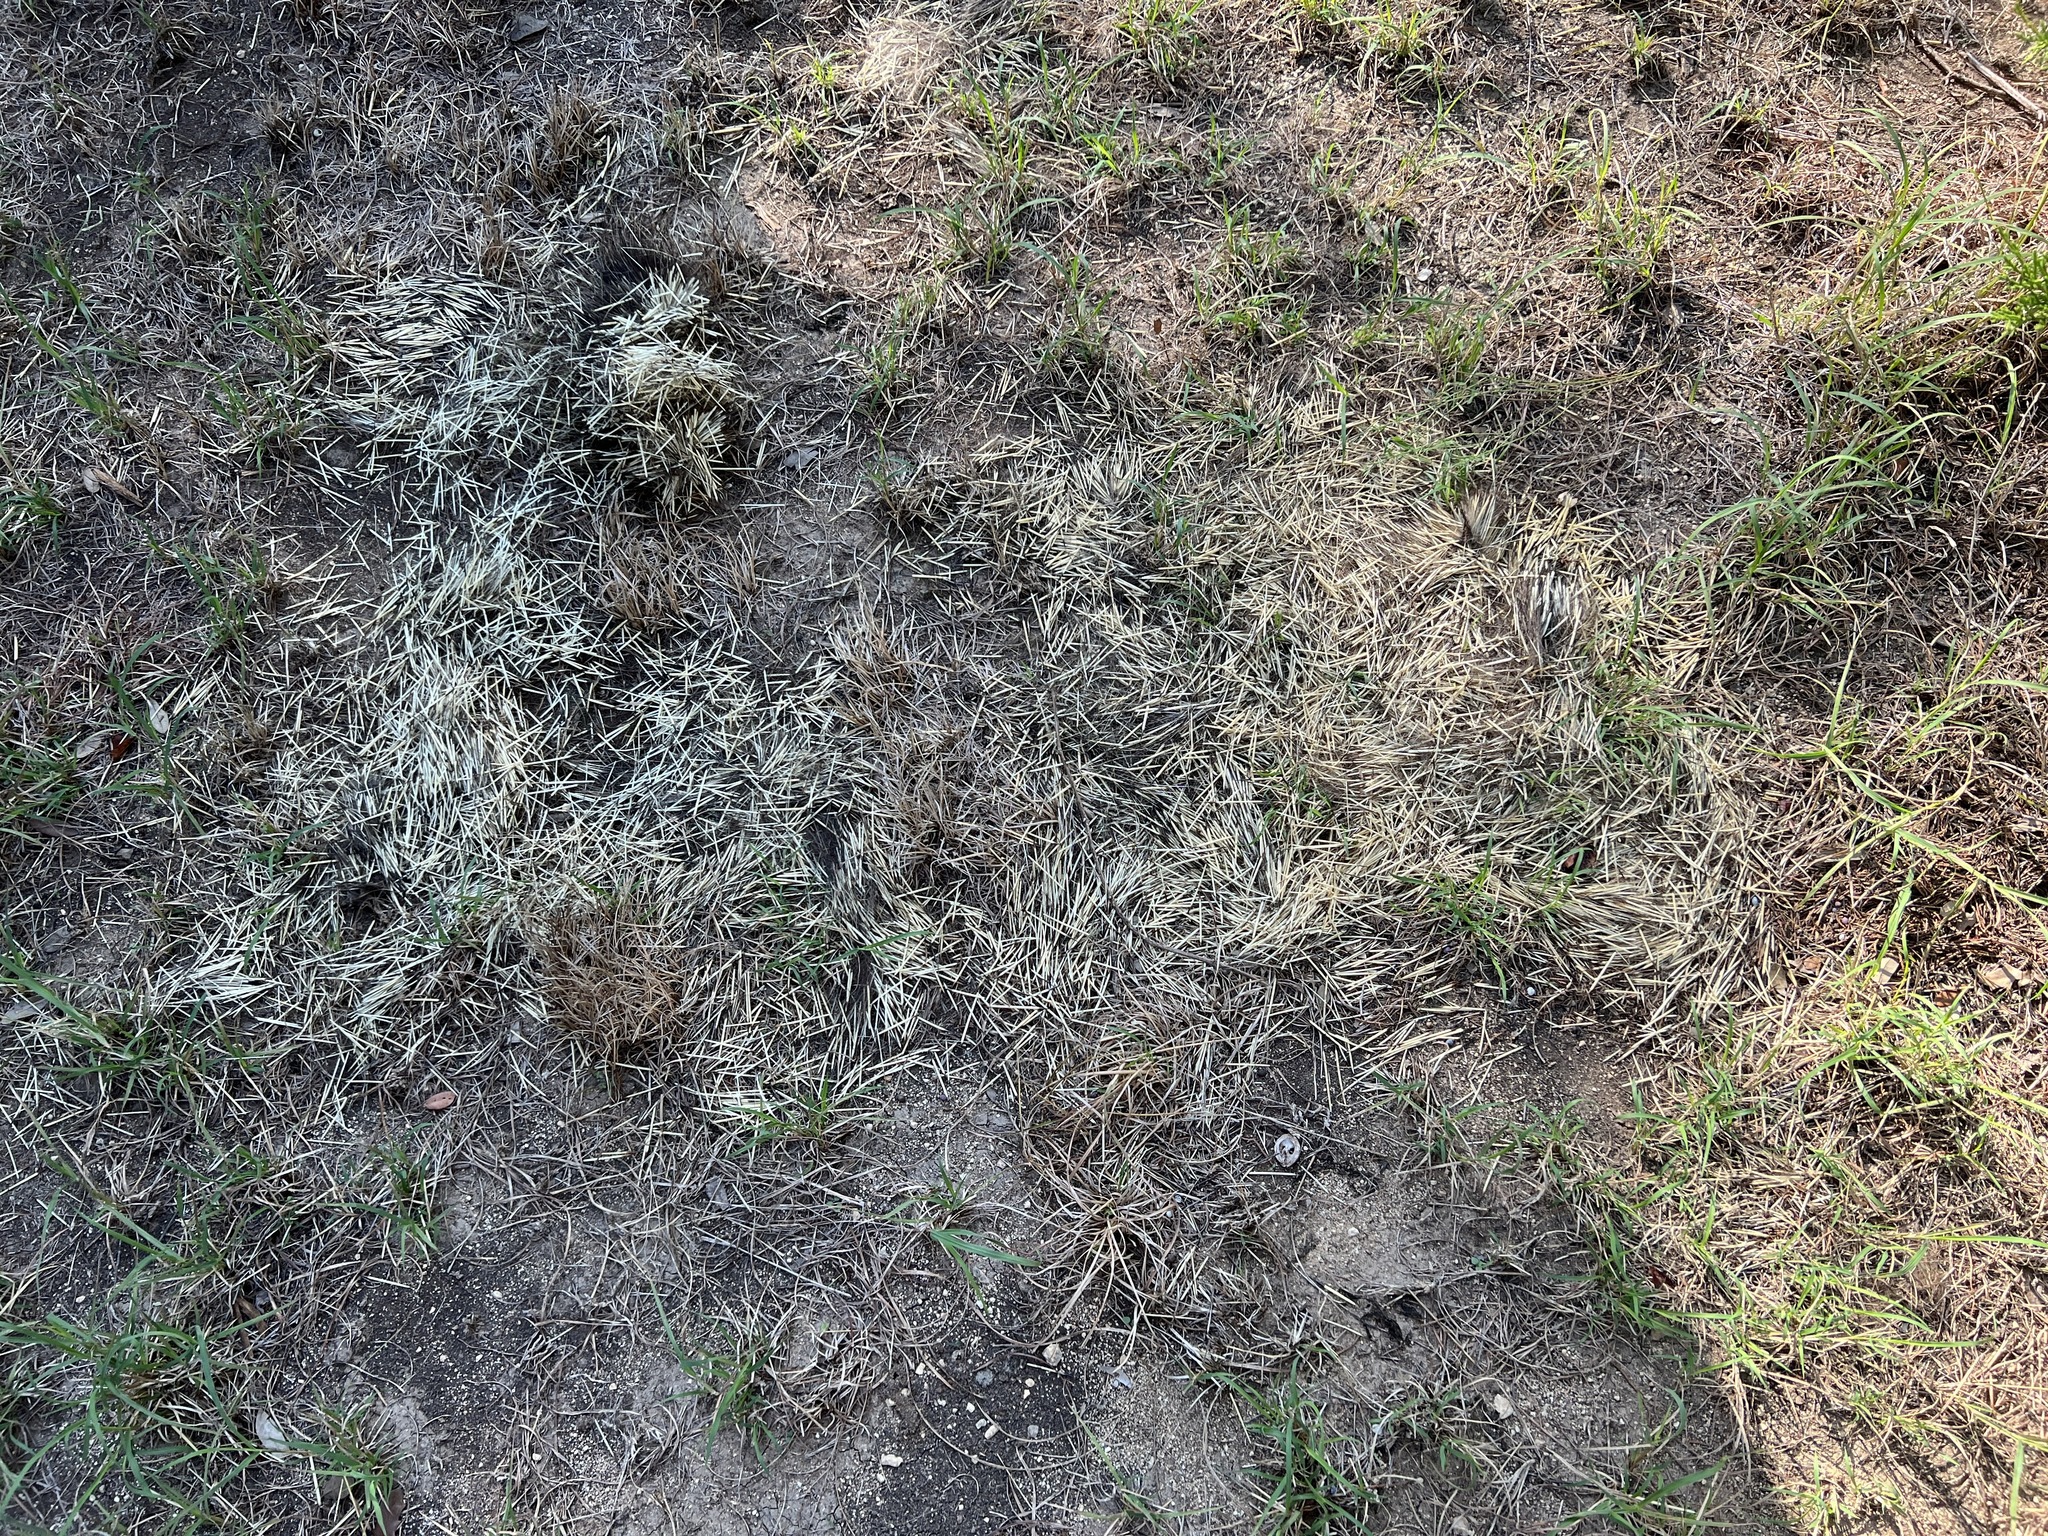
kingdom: Animalia
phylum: Chordata
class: Mammalia
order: Rodentia
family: Erethizontidae
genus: Erethizon
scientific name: Erethizon dorsatus
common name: North american porcupine
